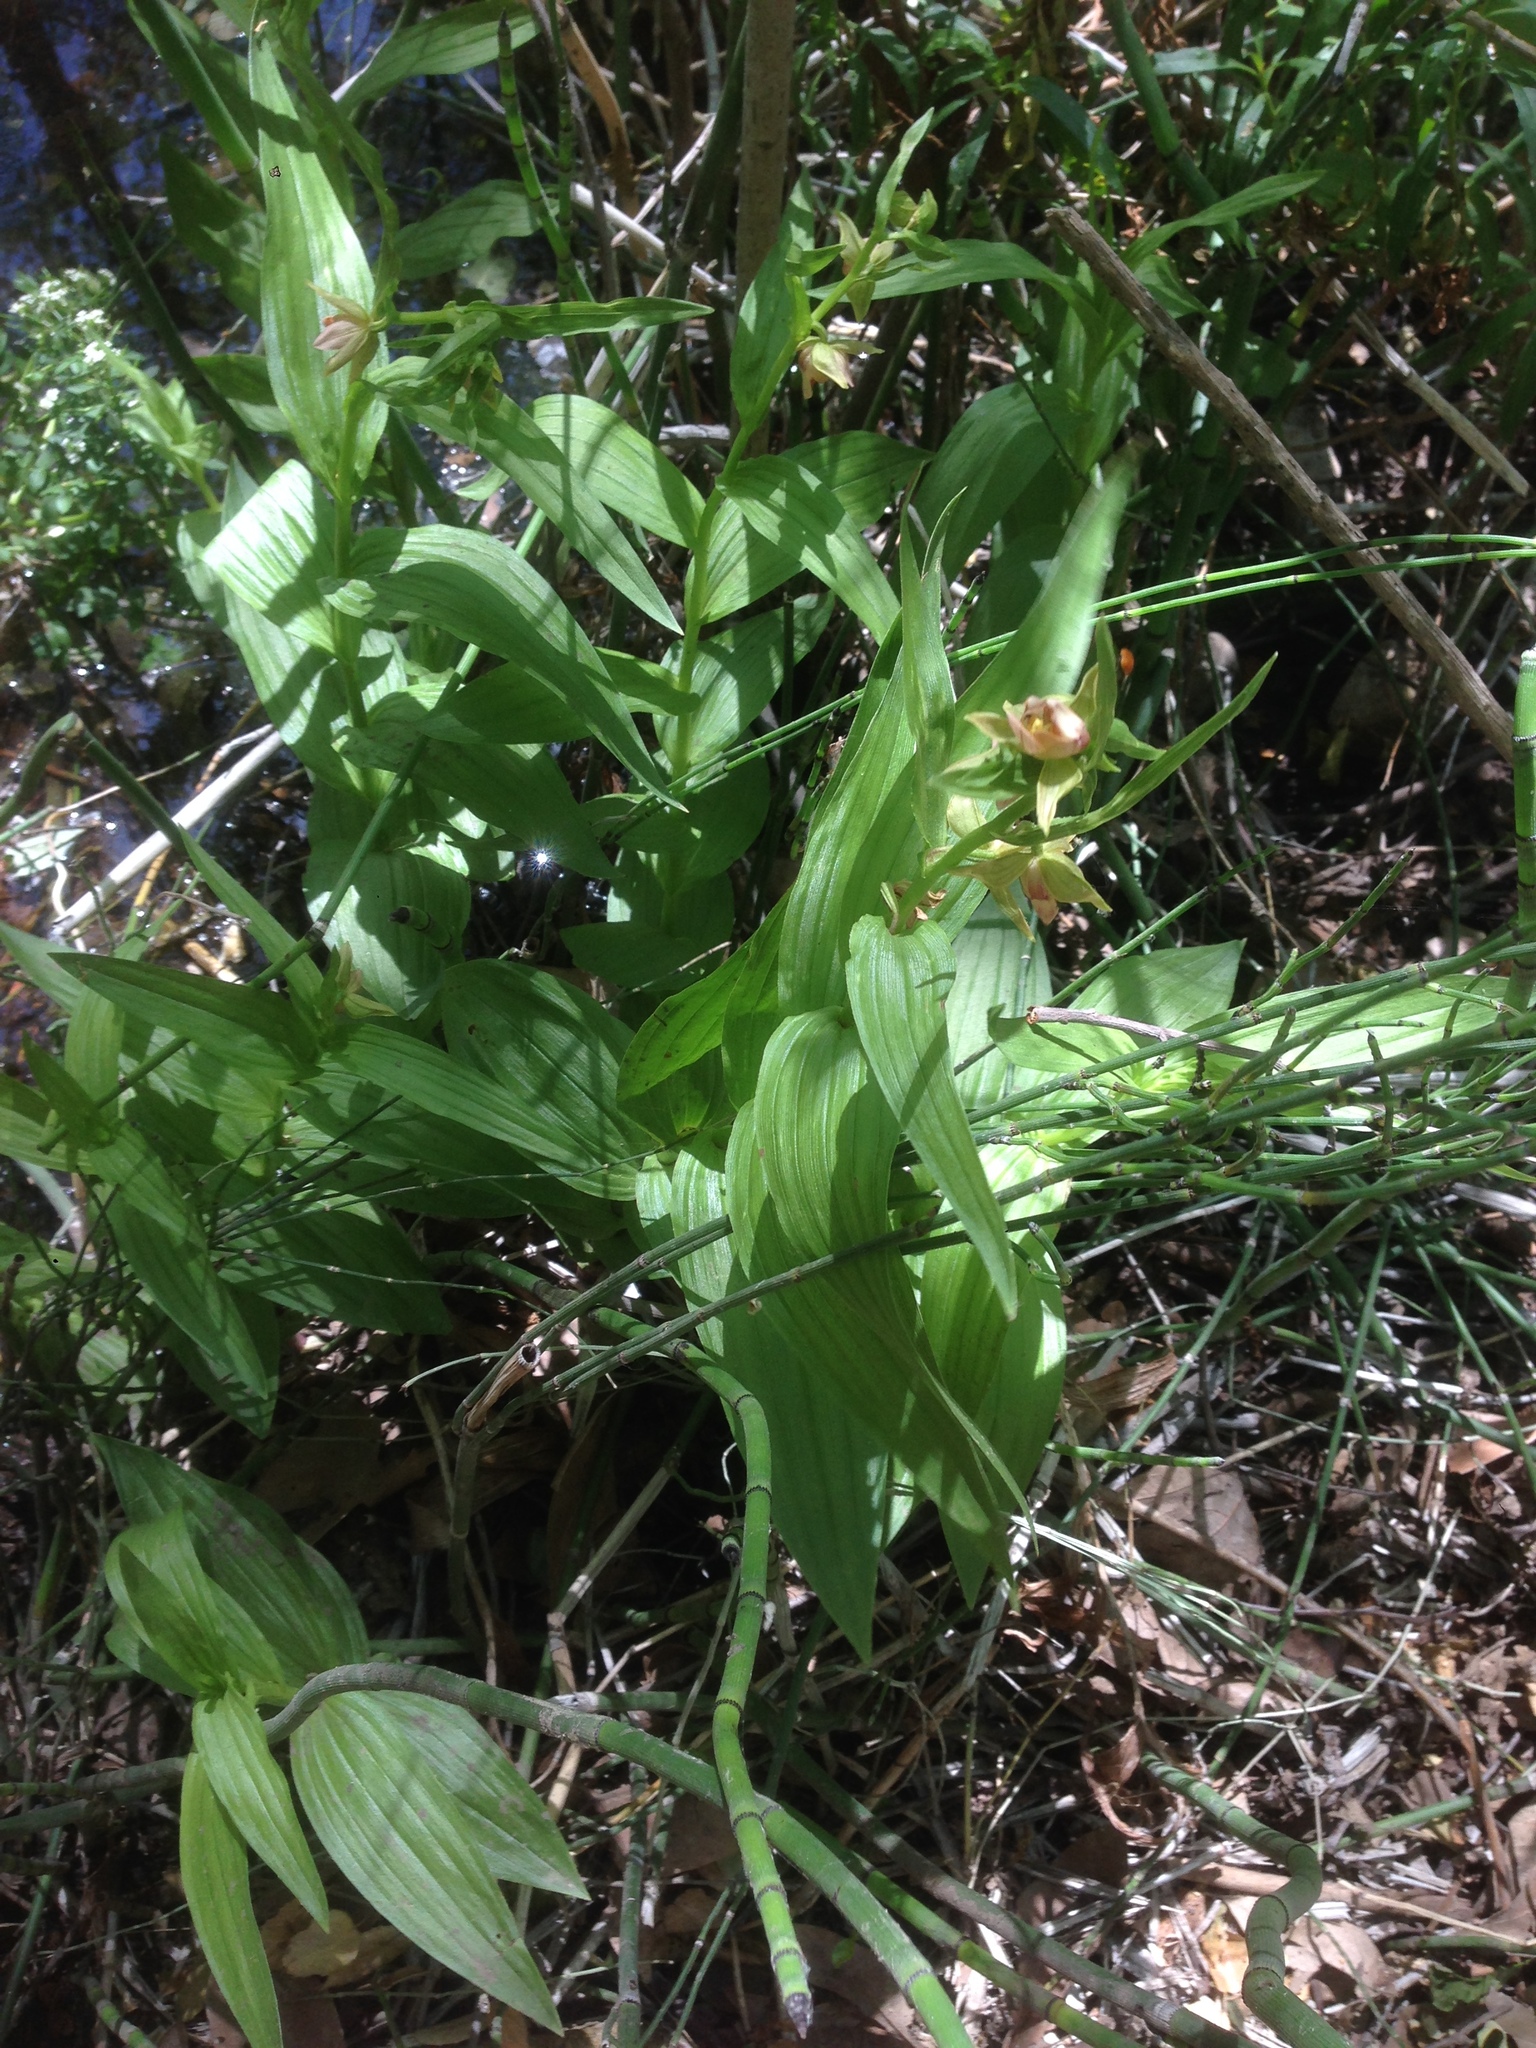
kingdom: Plantae
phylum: Tracheophyta
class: Liliopsida
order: Asparagales
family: Orchidaceae
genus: Epipactis
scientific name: Epipactis gigantea
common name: Chatterbox
